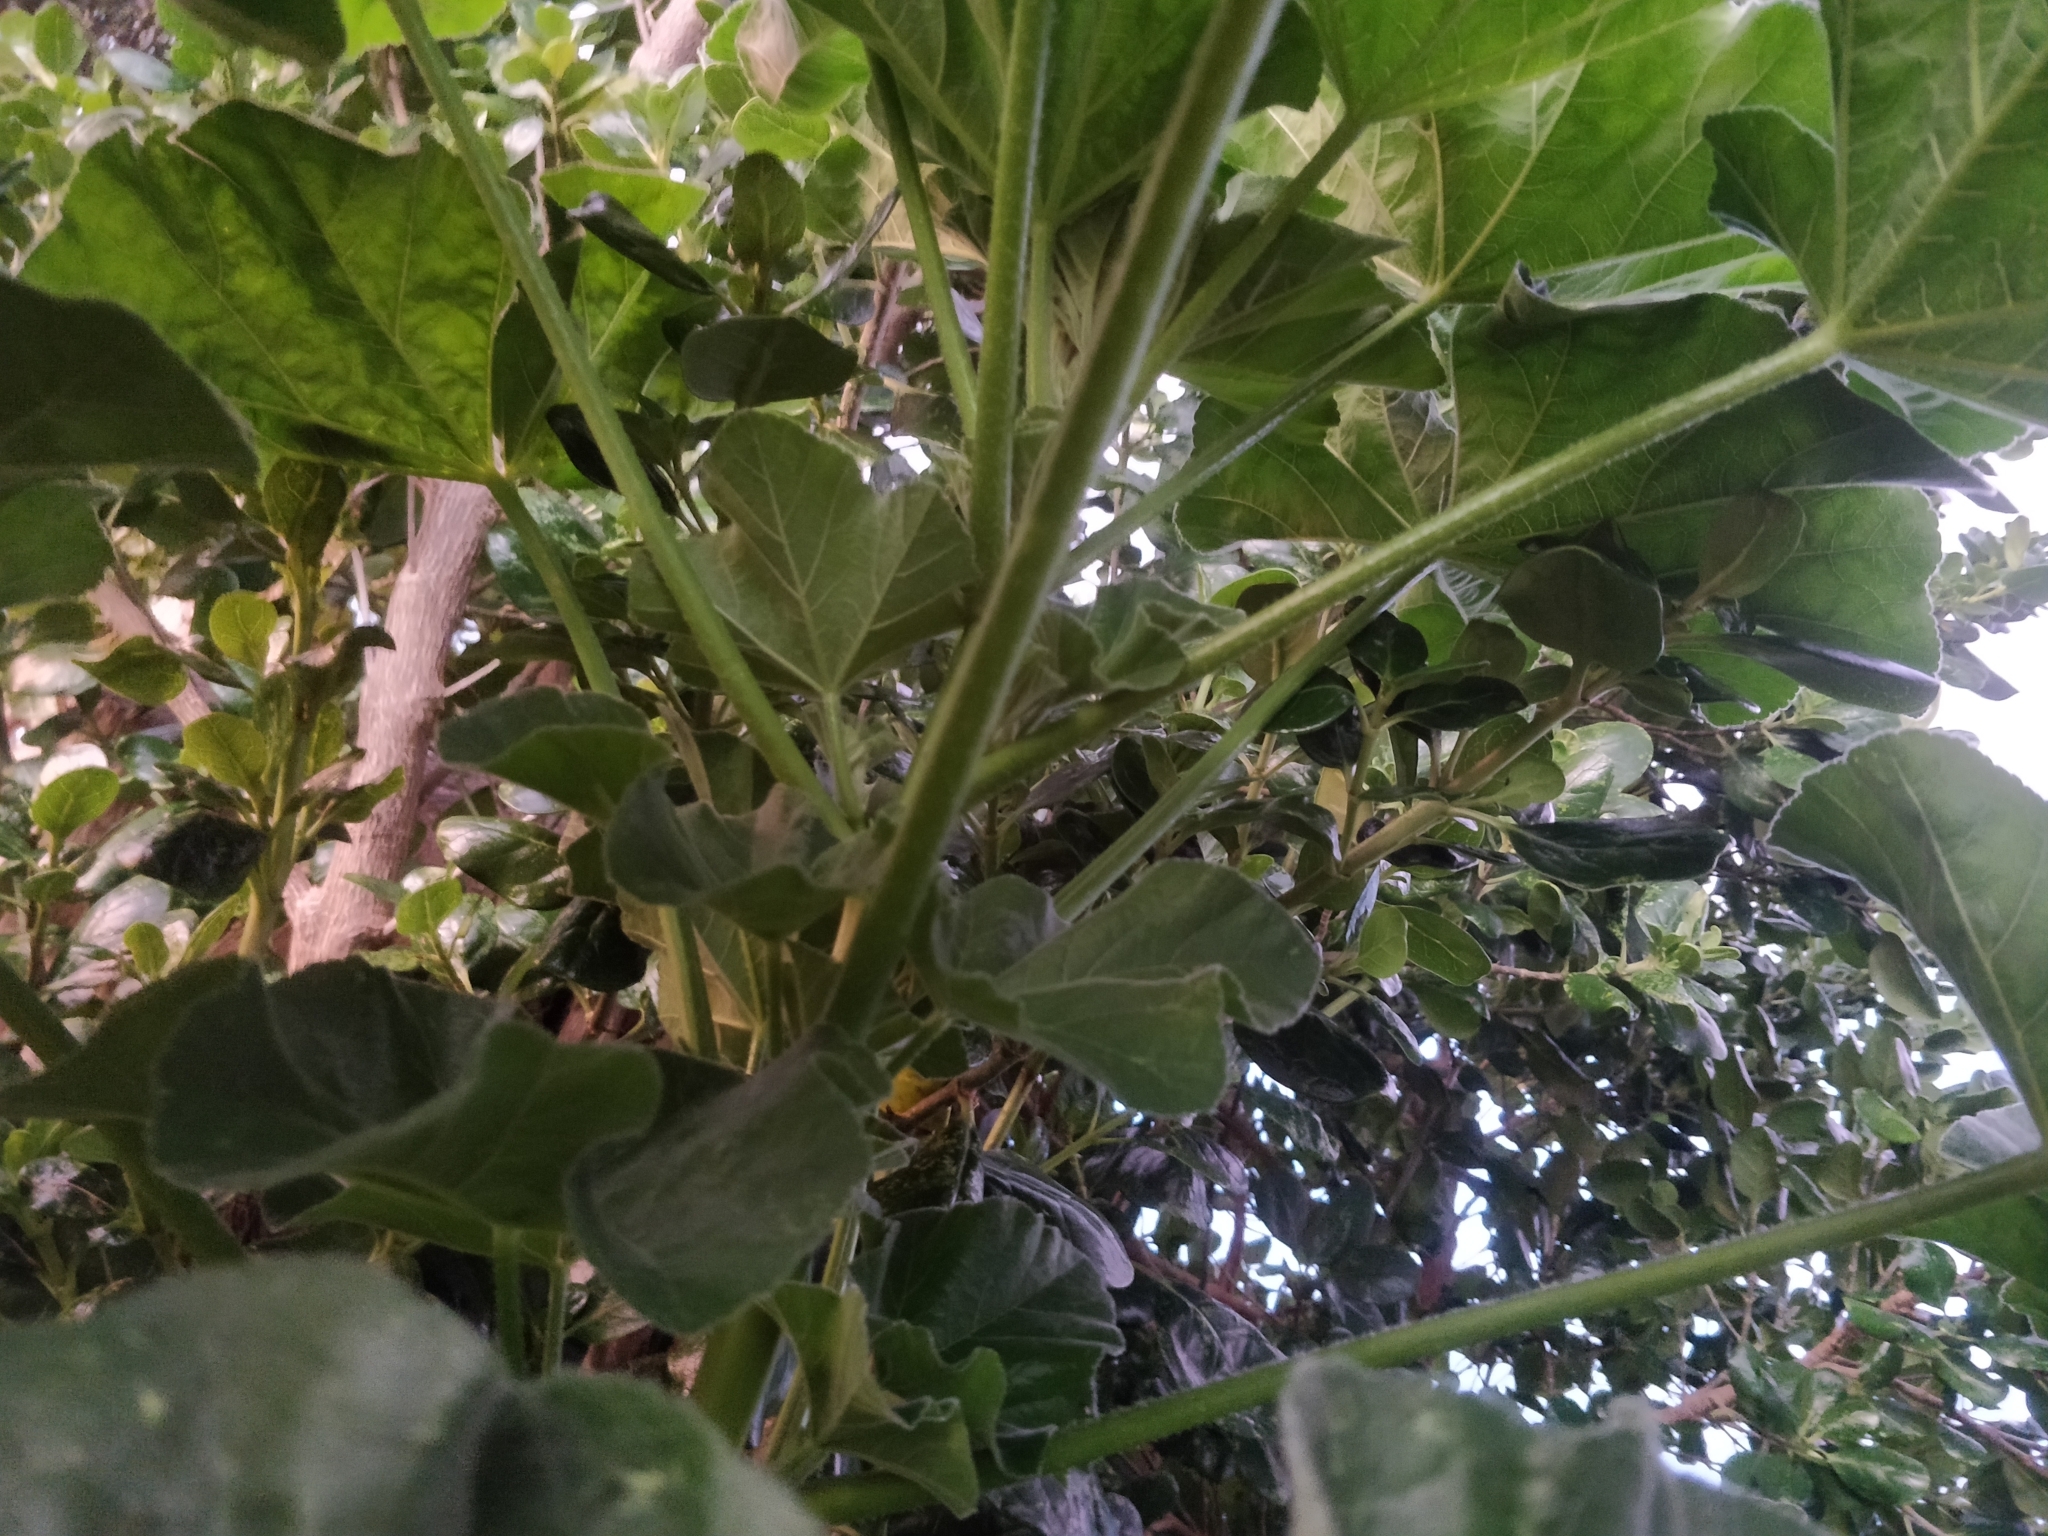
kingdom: Plantae
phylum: Tracheophyta
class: Magnoliopsida
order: Malvales
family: Malvaceae
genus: Malva
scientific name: Malva arborea
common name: Tree mallow
